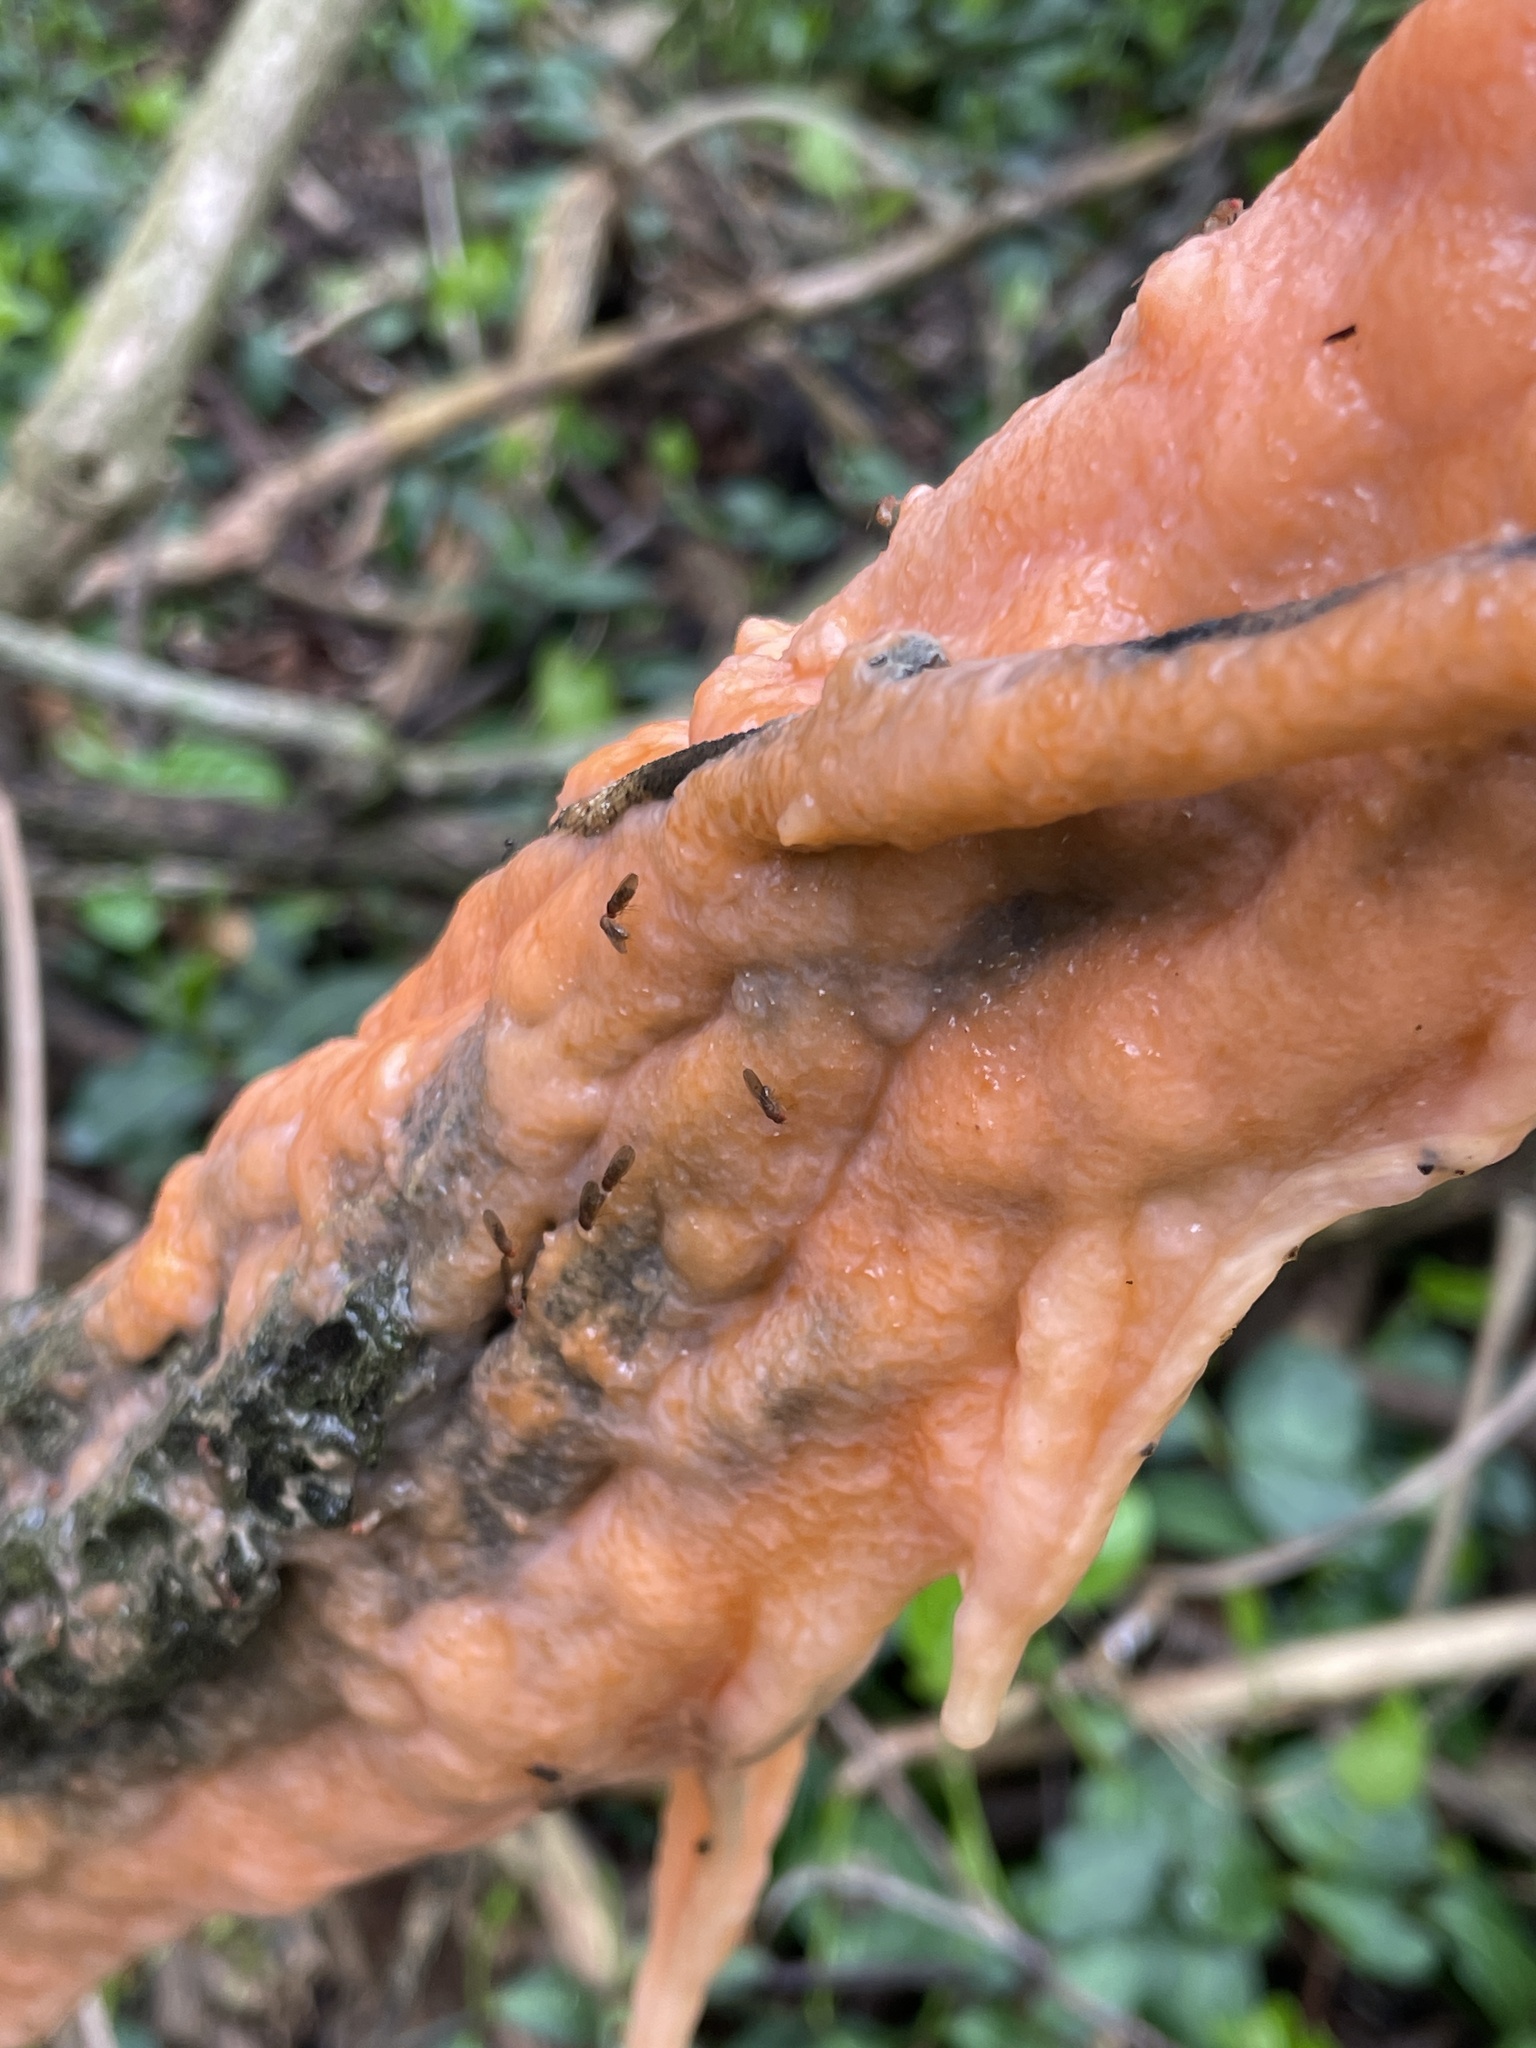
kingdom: Fungi
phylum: Ascomycota
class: Sordariomycetes
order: Hypocreales
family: Nectriaceae
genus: Fusicolla
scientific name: Fusicolla merismoides
